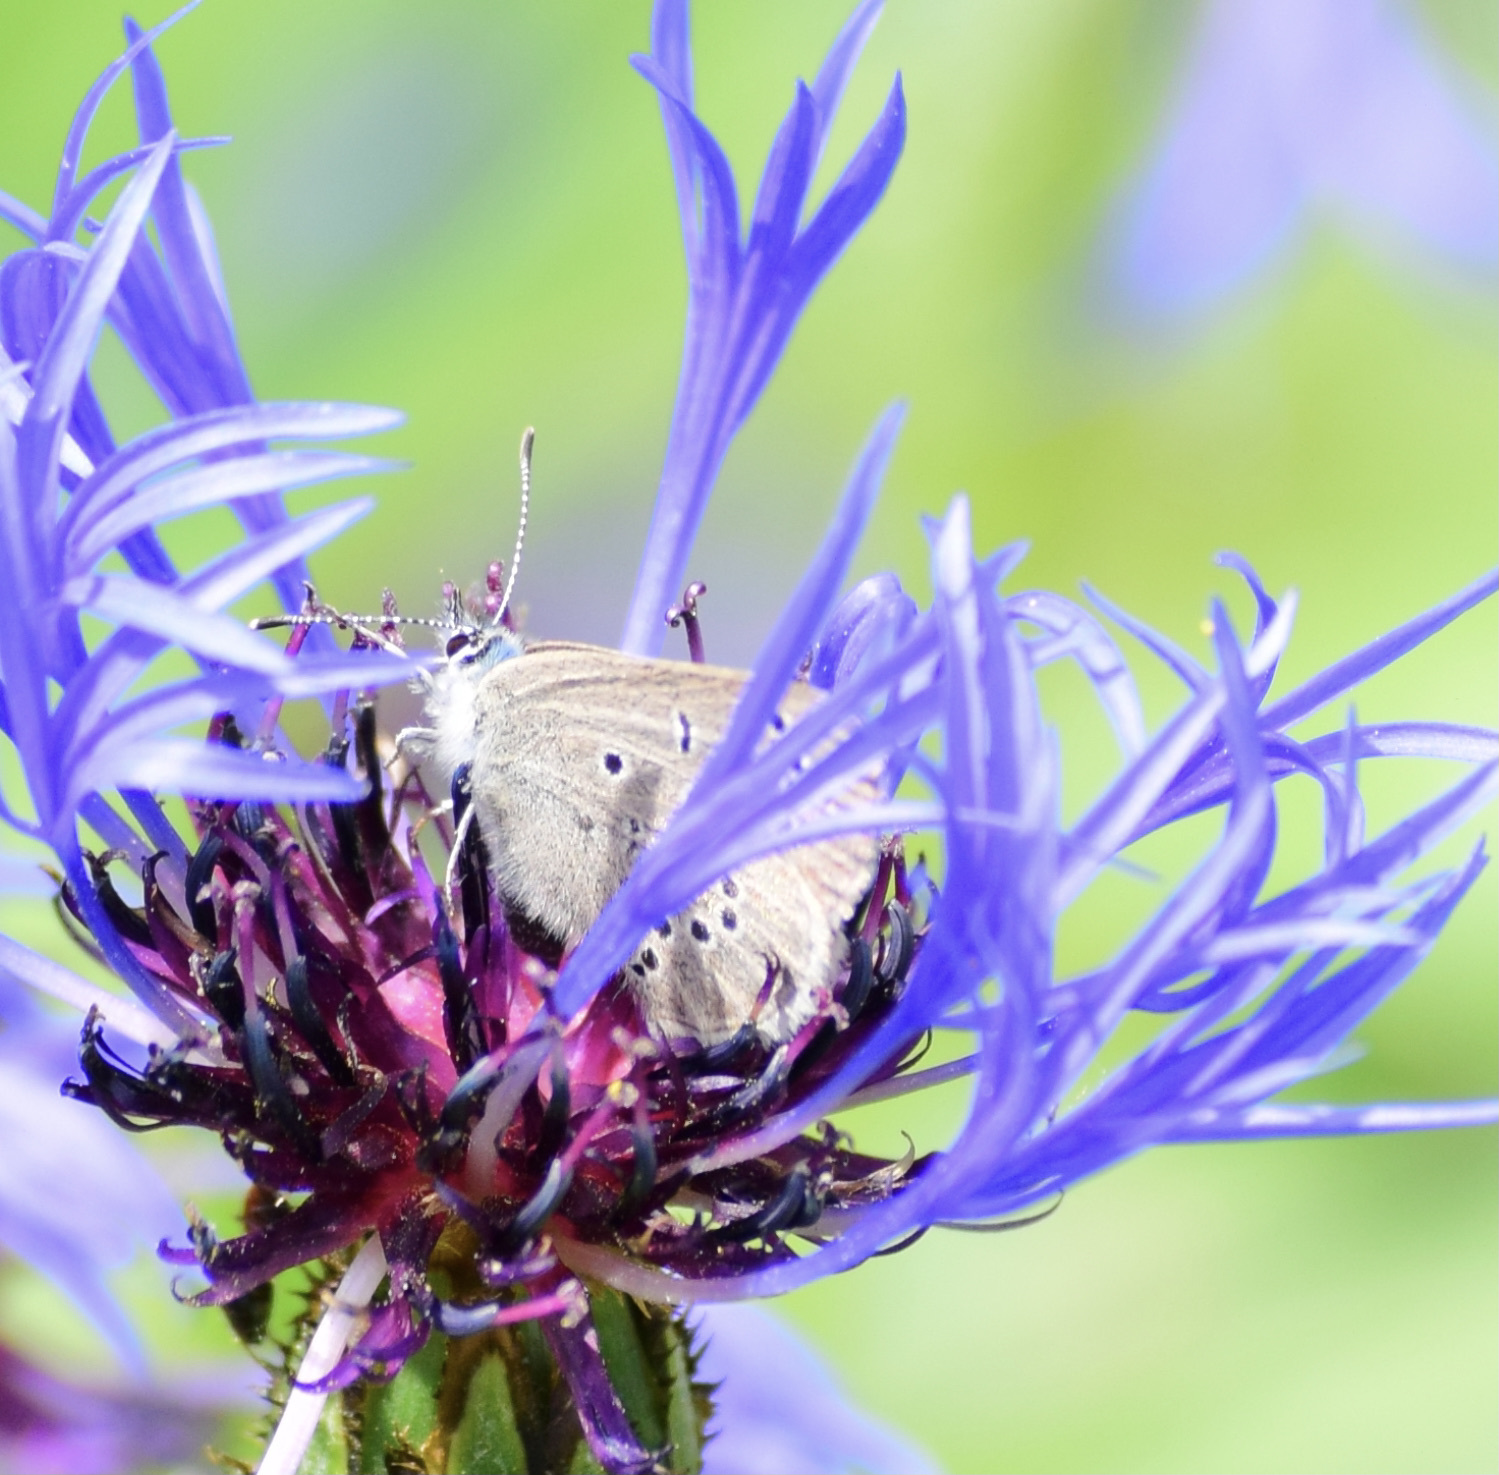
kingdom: Animalia
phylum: Arthropoda
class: Insecta
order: Lepidoptera
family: Lycaenidae
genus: Glaucopsyche
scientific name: Glaucopsyche lygdamus
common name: Silvery blue
